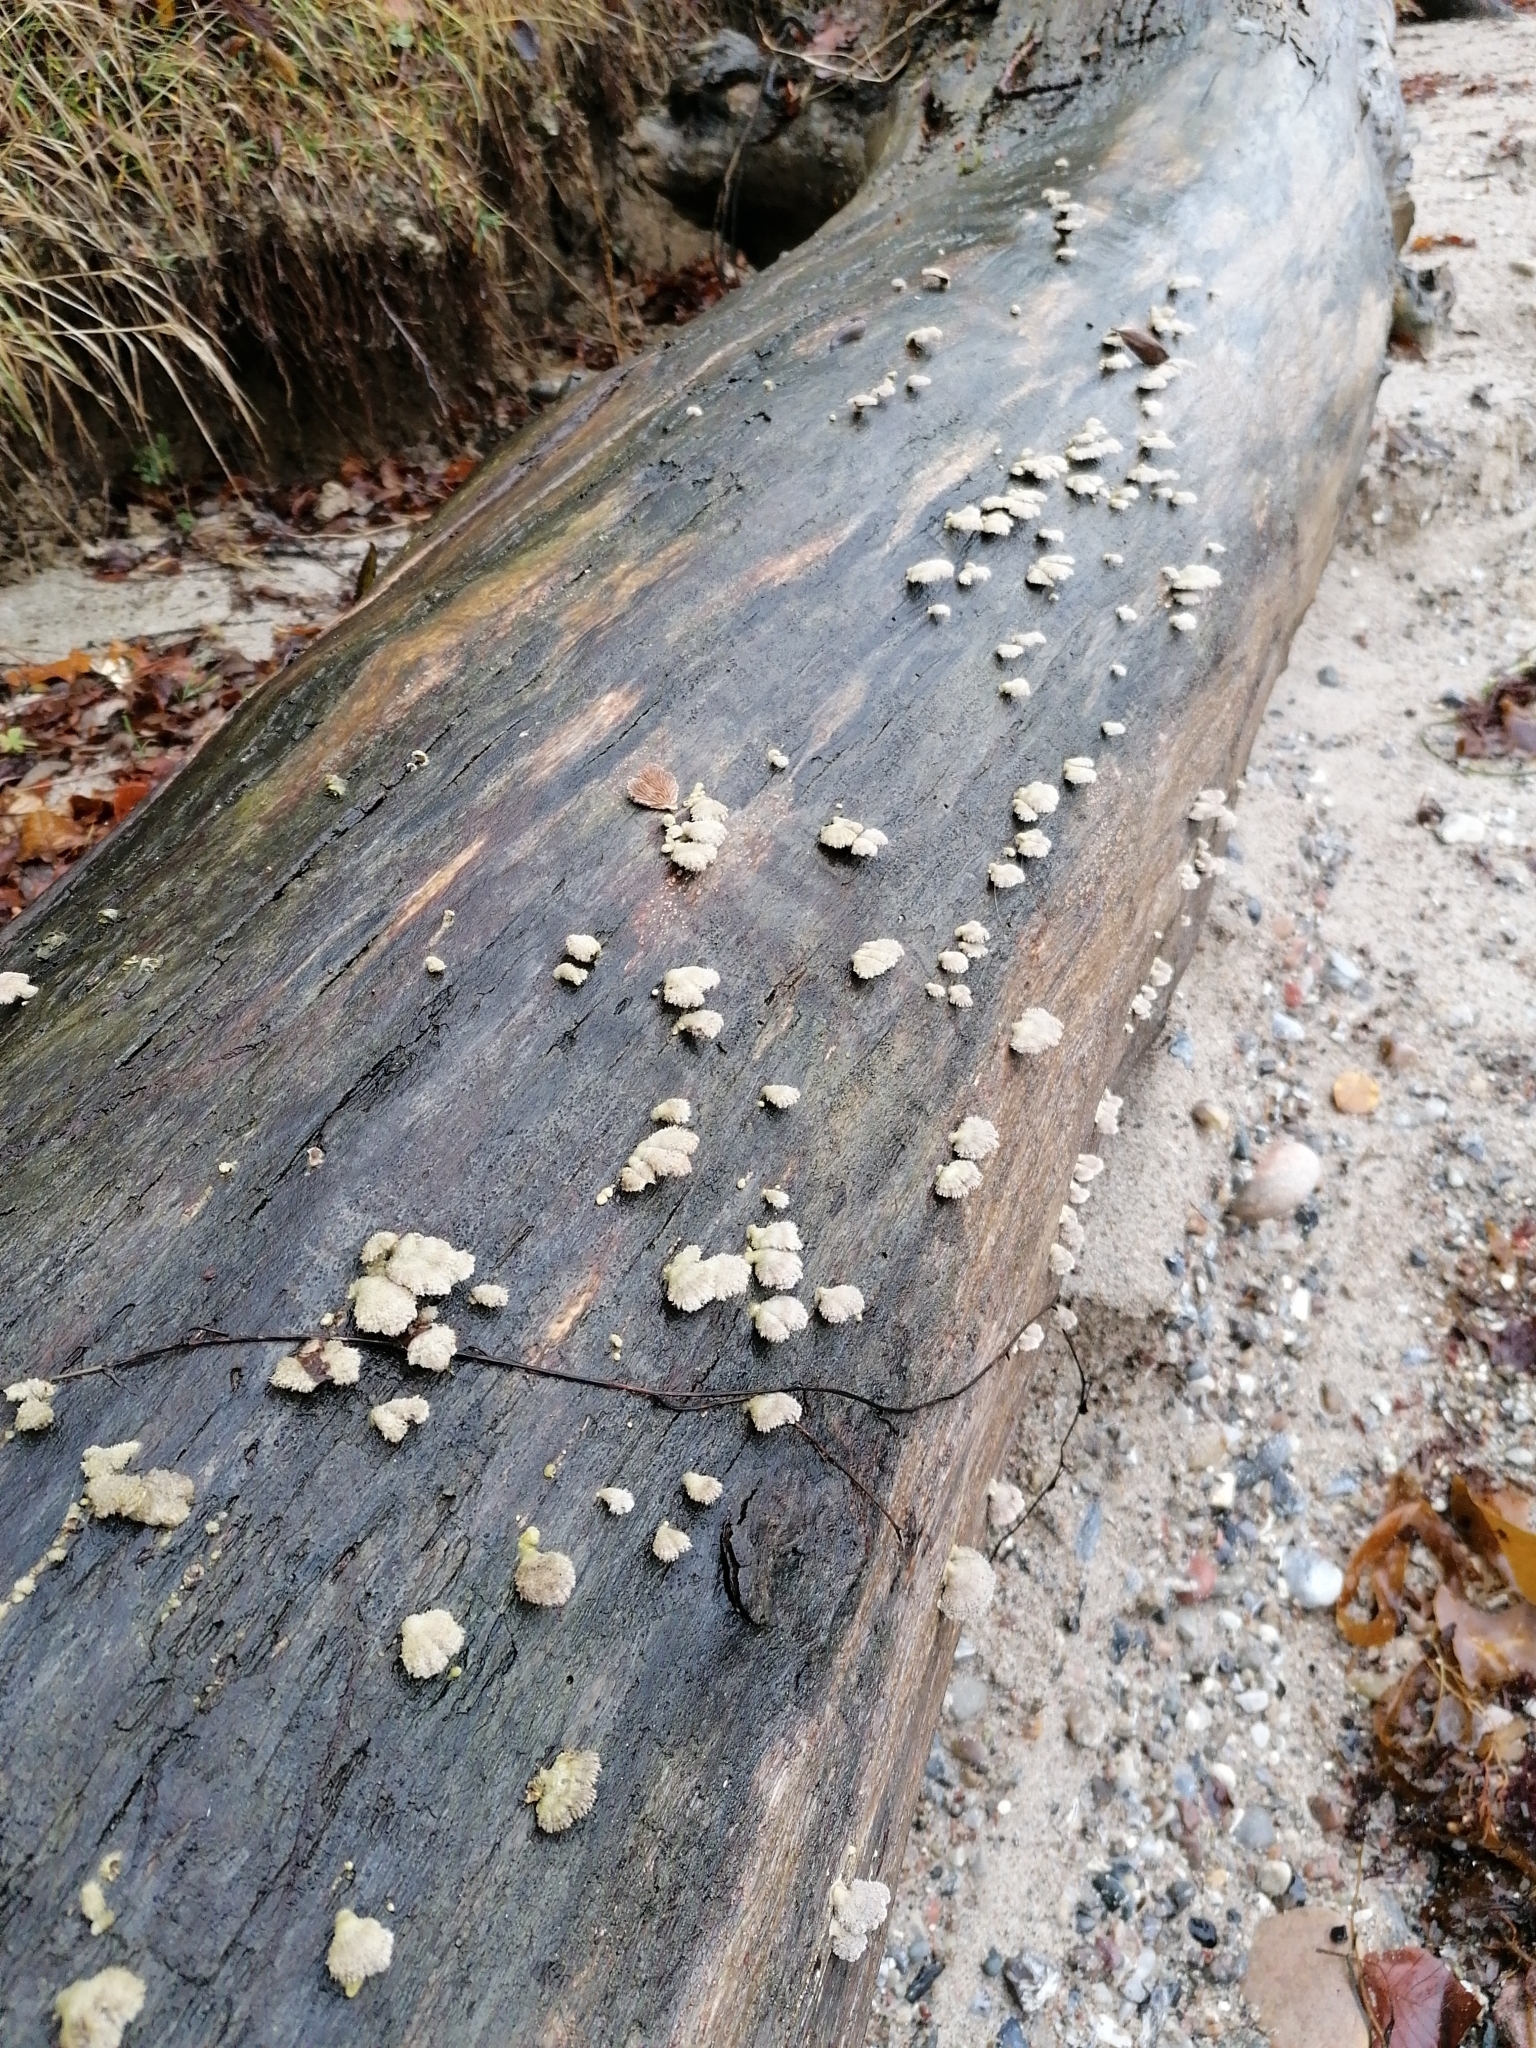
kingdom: Fungi
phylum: Basidiomycota
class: Agaricomycetes
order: Agaricales
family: Schizophyllaceae
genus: Schizophyllum
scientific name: Schizophyllum commune
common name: Common porecrust
